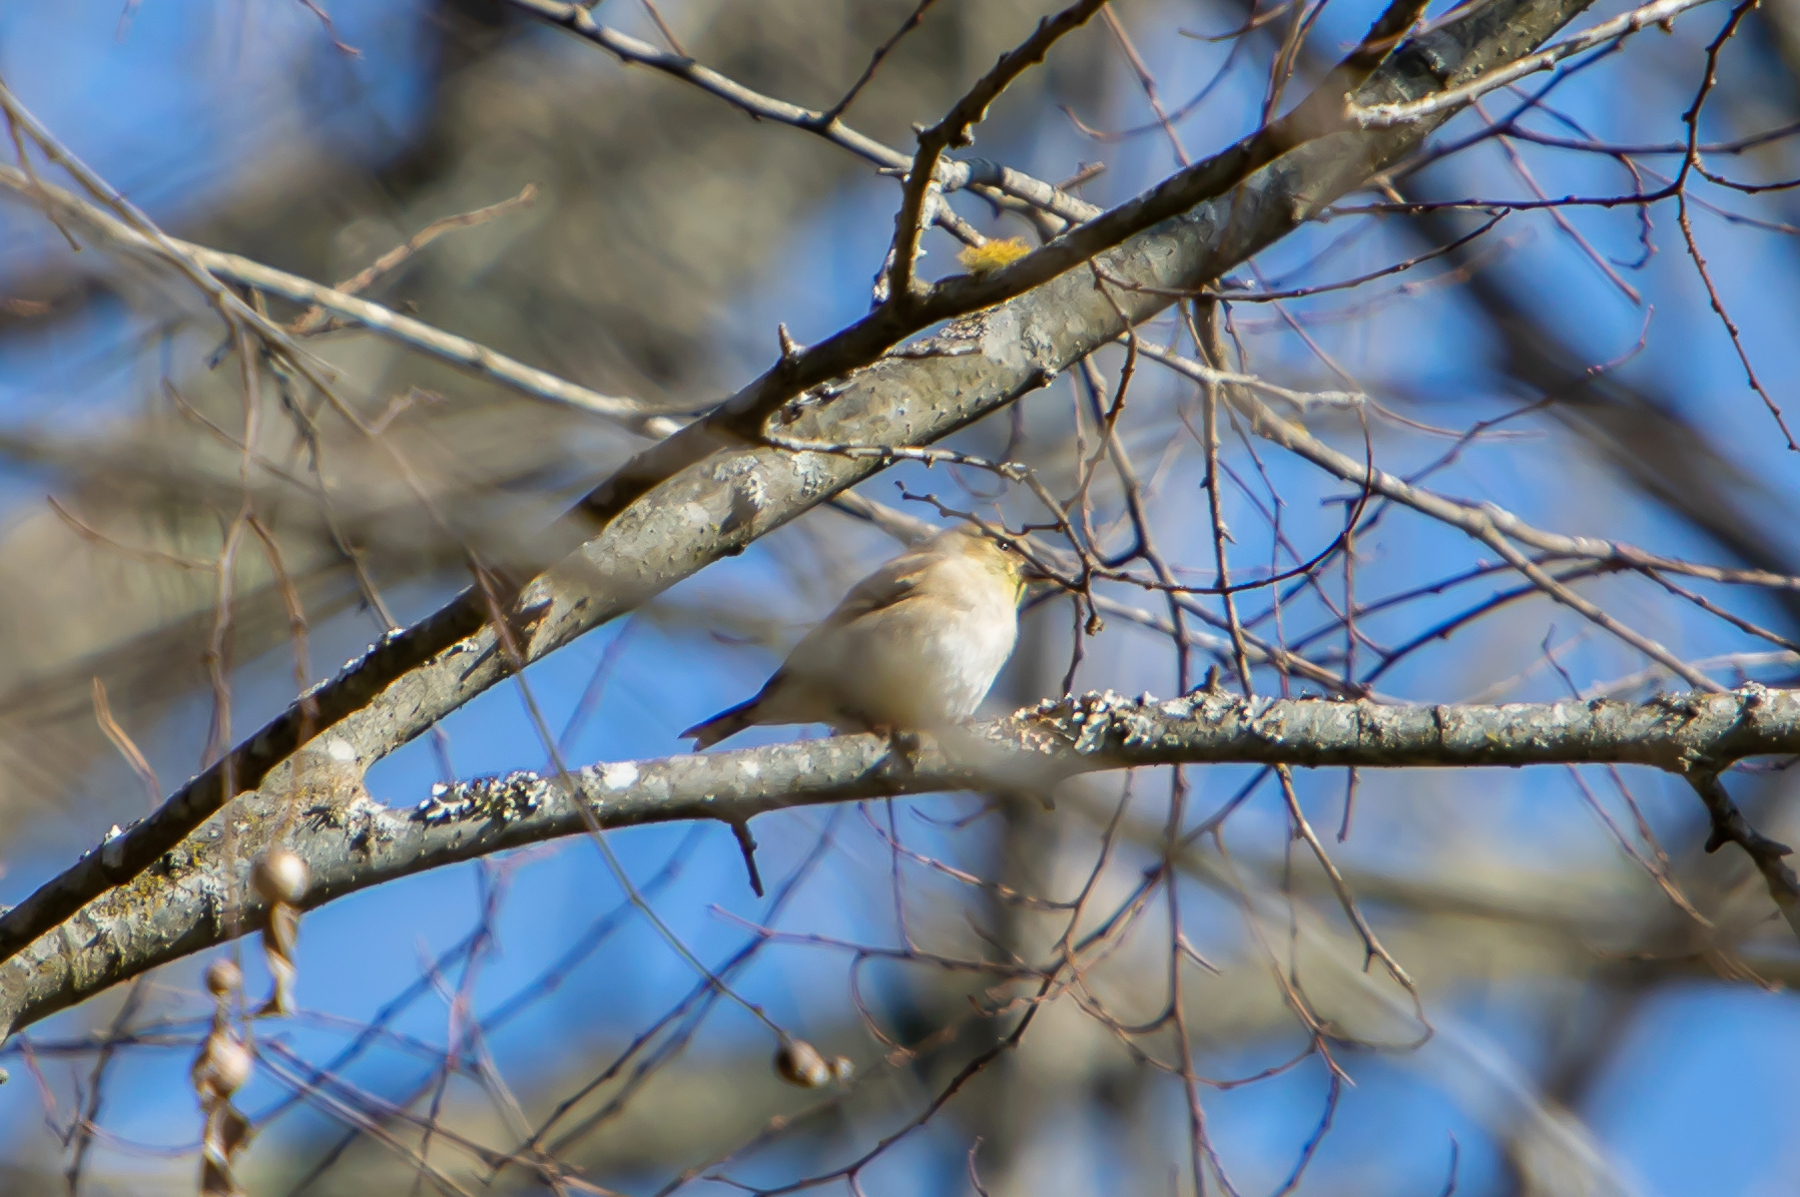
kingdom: Animalia
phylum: Chordata
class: Aves
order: Passeriformes
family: Fringillidae
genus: Spinus
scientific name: Spinus tristis
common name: American goldfinch
